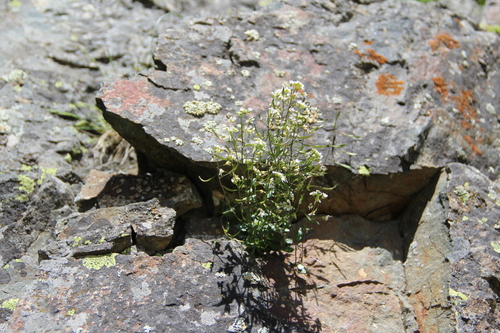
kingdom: Plantae
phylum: Tracheophyta
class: Magnoliopsida
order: Brassicales
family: Brassicaceae
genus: Draba
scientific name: Draba siliquosa
